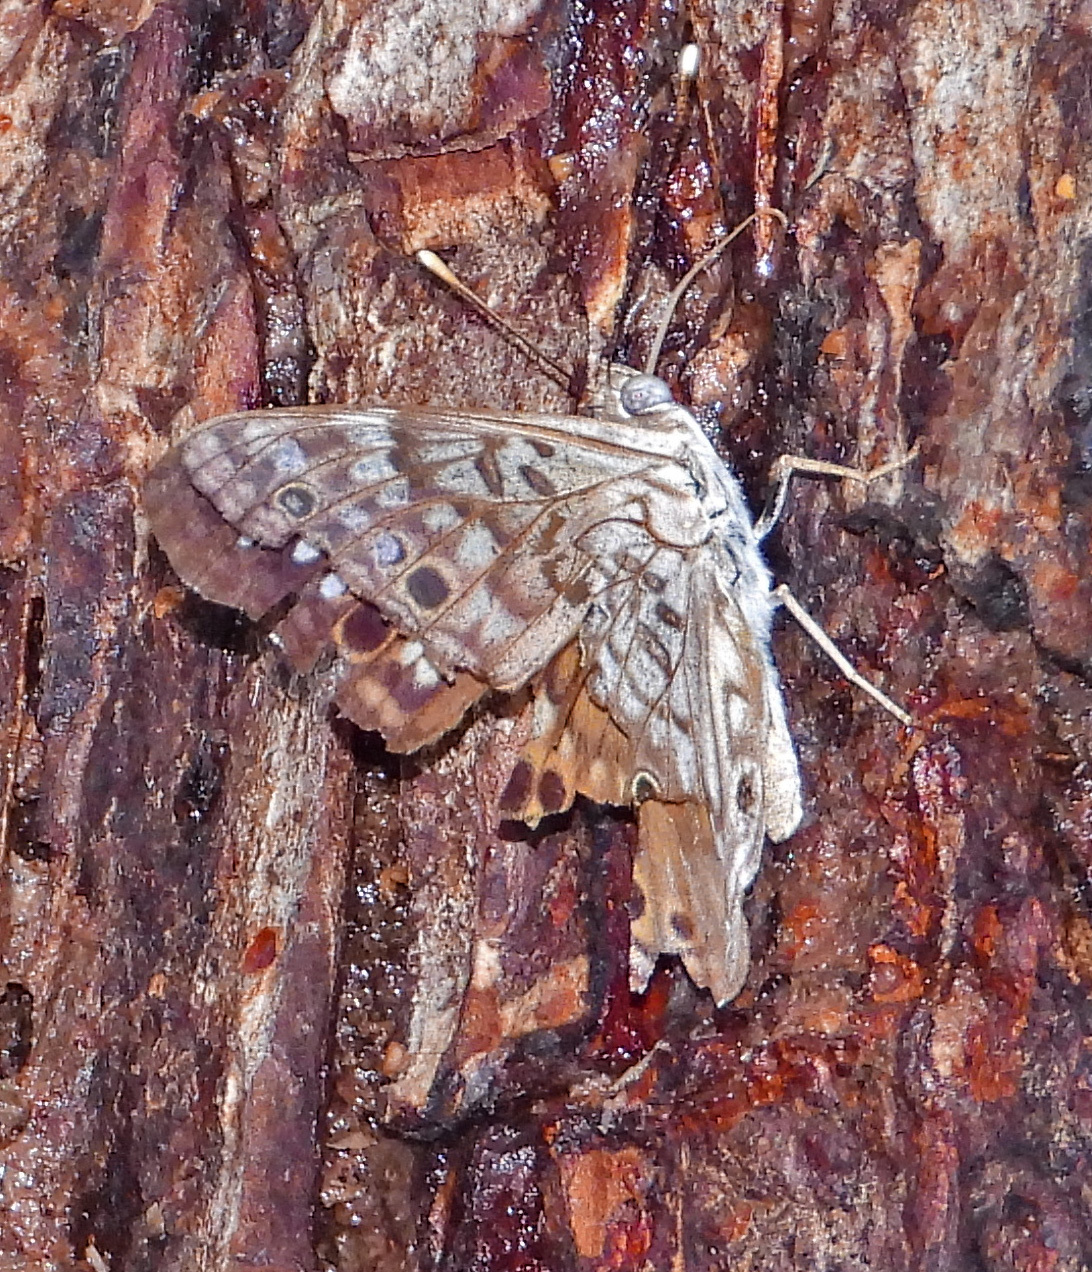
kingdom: Animalia
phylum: Arthropoda
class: Insecta
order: Lepidoptera
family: Nymphalidae
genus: Asterocampa
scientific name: Asterocampa celtis
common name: Hackberry emperor
